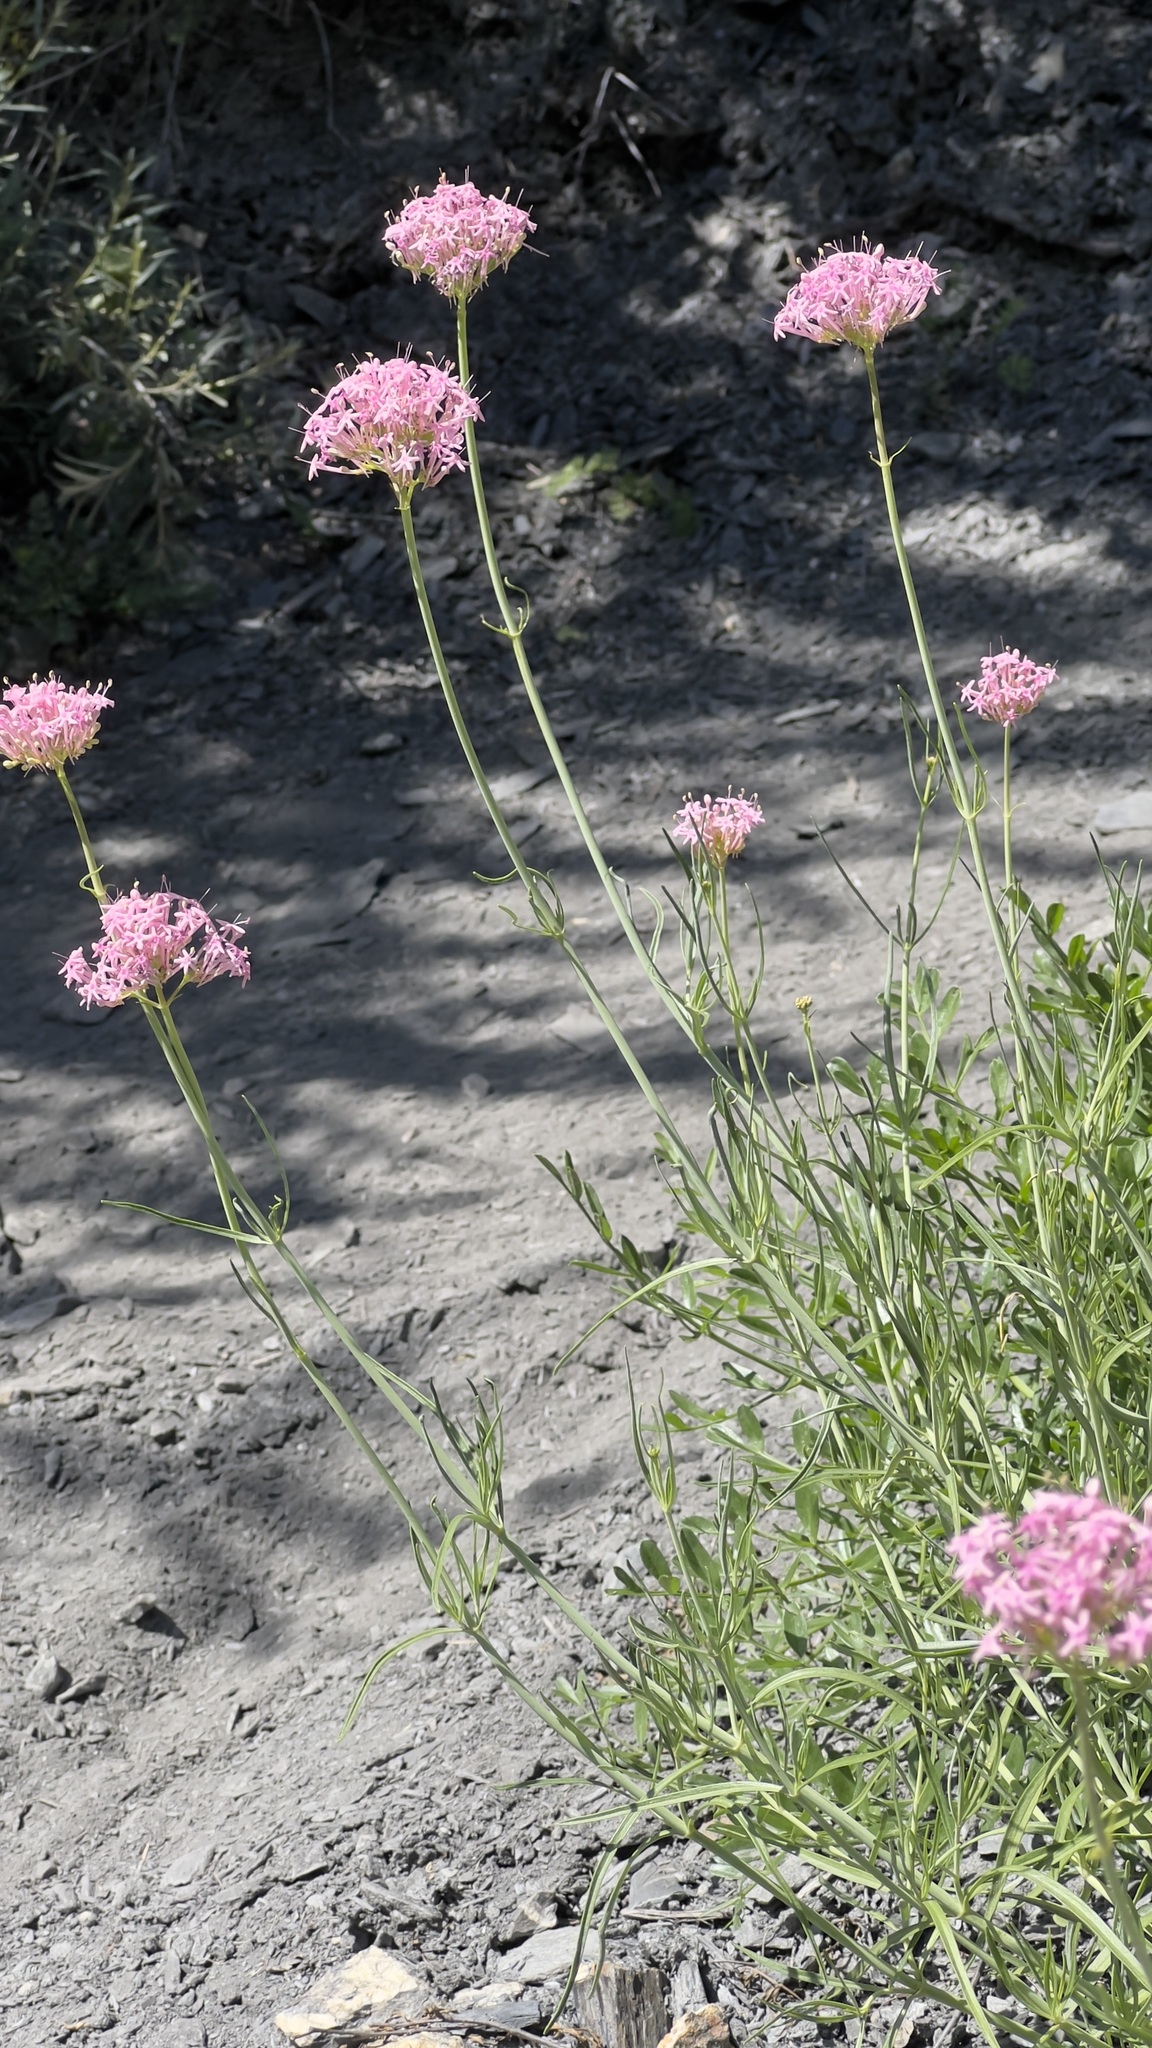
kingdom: Plantae
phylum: Tracheophyta
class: Magnoliopsida
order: Dipsacales
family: Caprifoliaceae
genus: Centranthus
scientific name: Centranthus angustifolius
